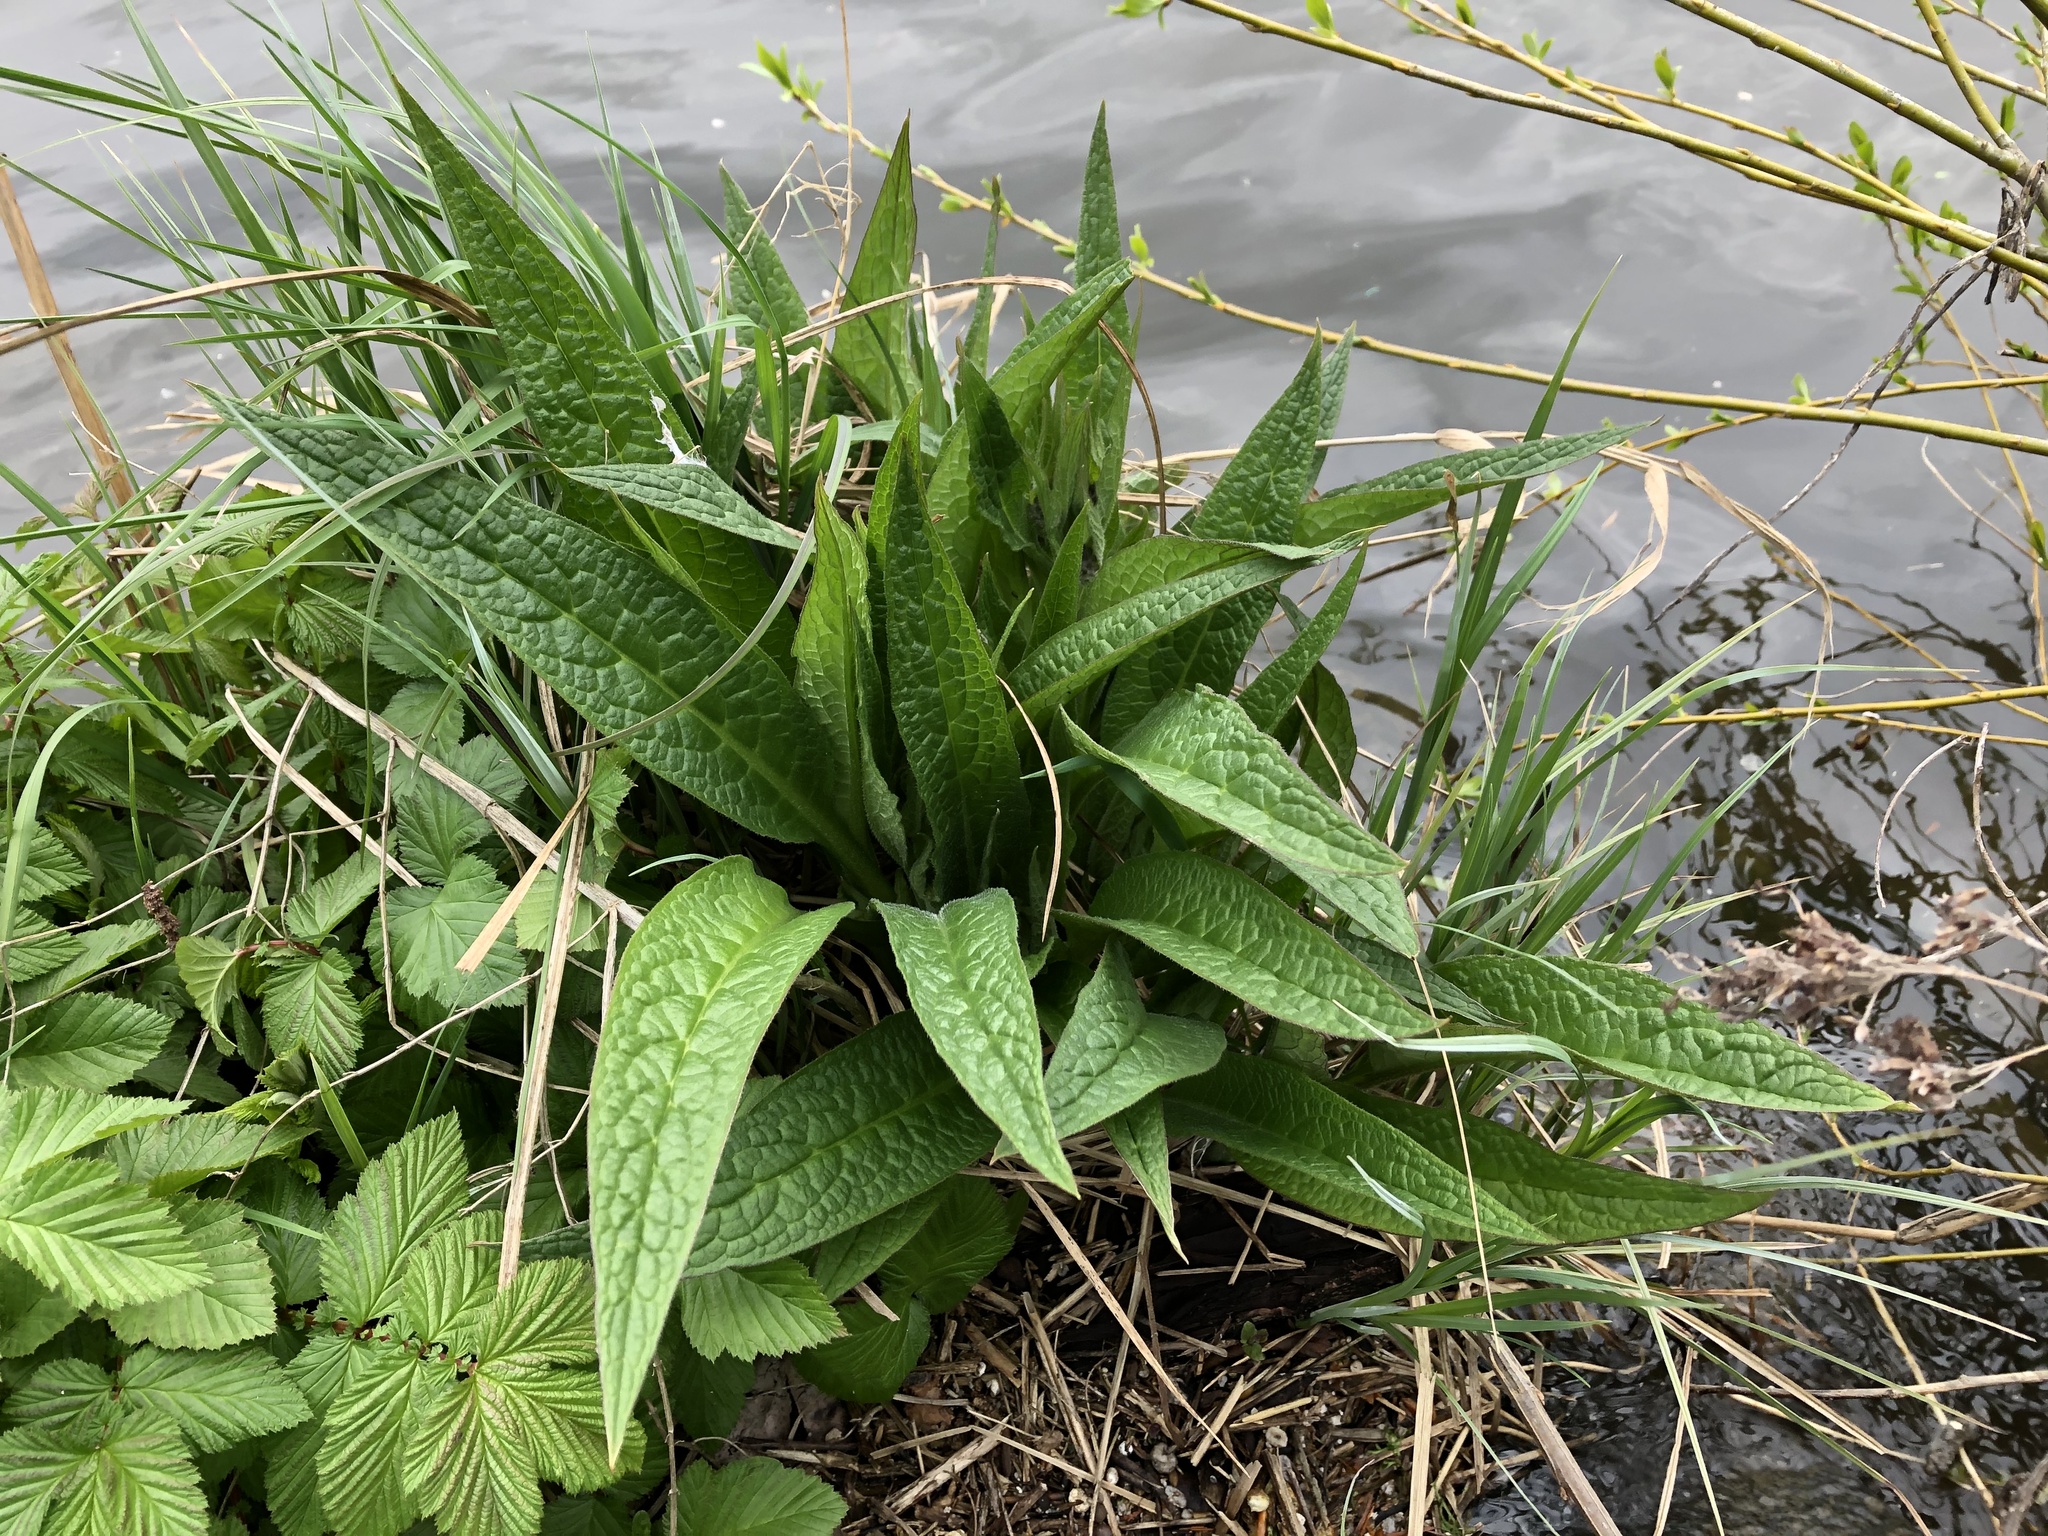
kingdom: Plantae
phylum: Tracheophyta
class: Magnoliopsida
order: Boraginales
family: Boraginaceae
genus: Symphytum
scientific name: Symphytum officinale
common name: Common comfrey
